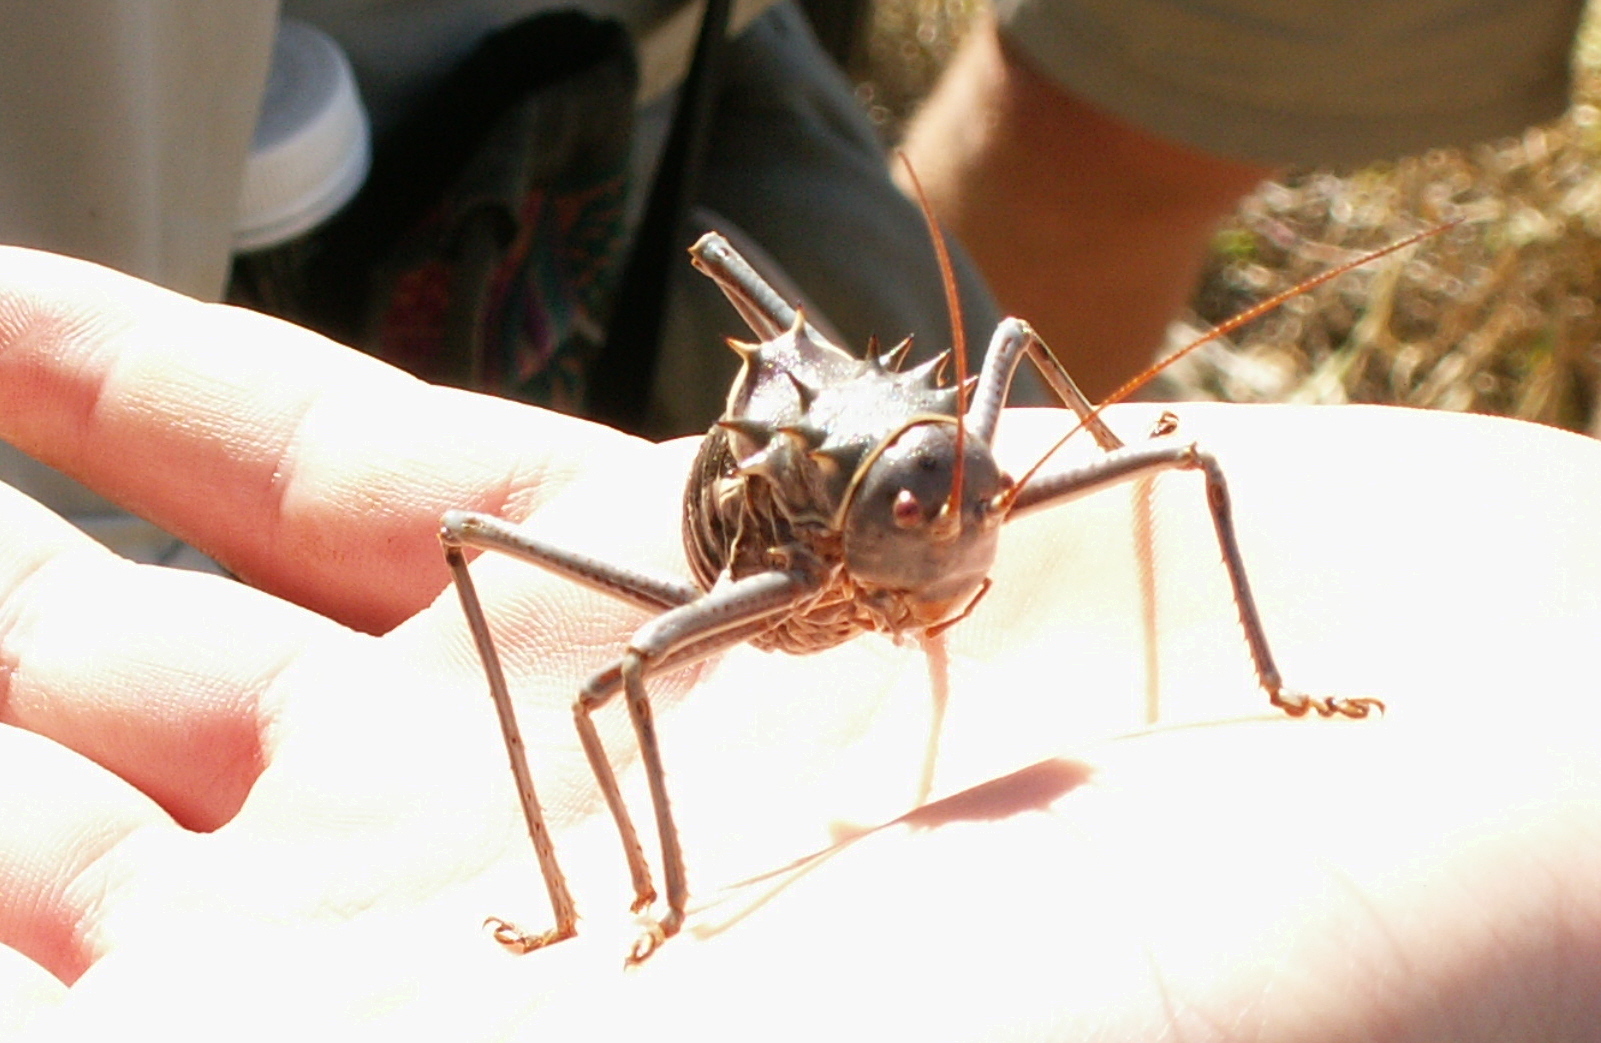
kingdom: Animalia
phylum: Arthropoda
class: Insecta
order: Orthoptera
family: Tettigoniidae
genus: Acanthoplus
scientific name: Acanthoplus discoidalis
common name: Armoured katydid
